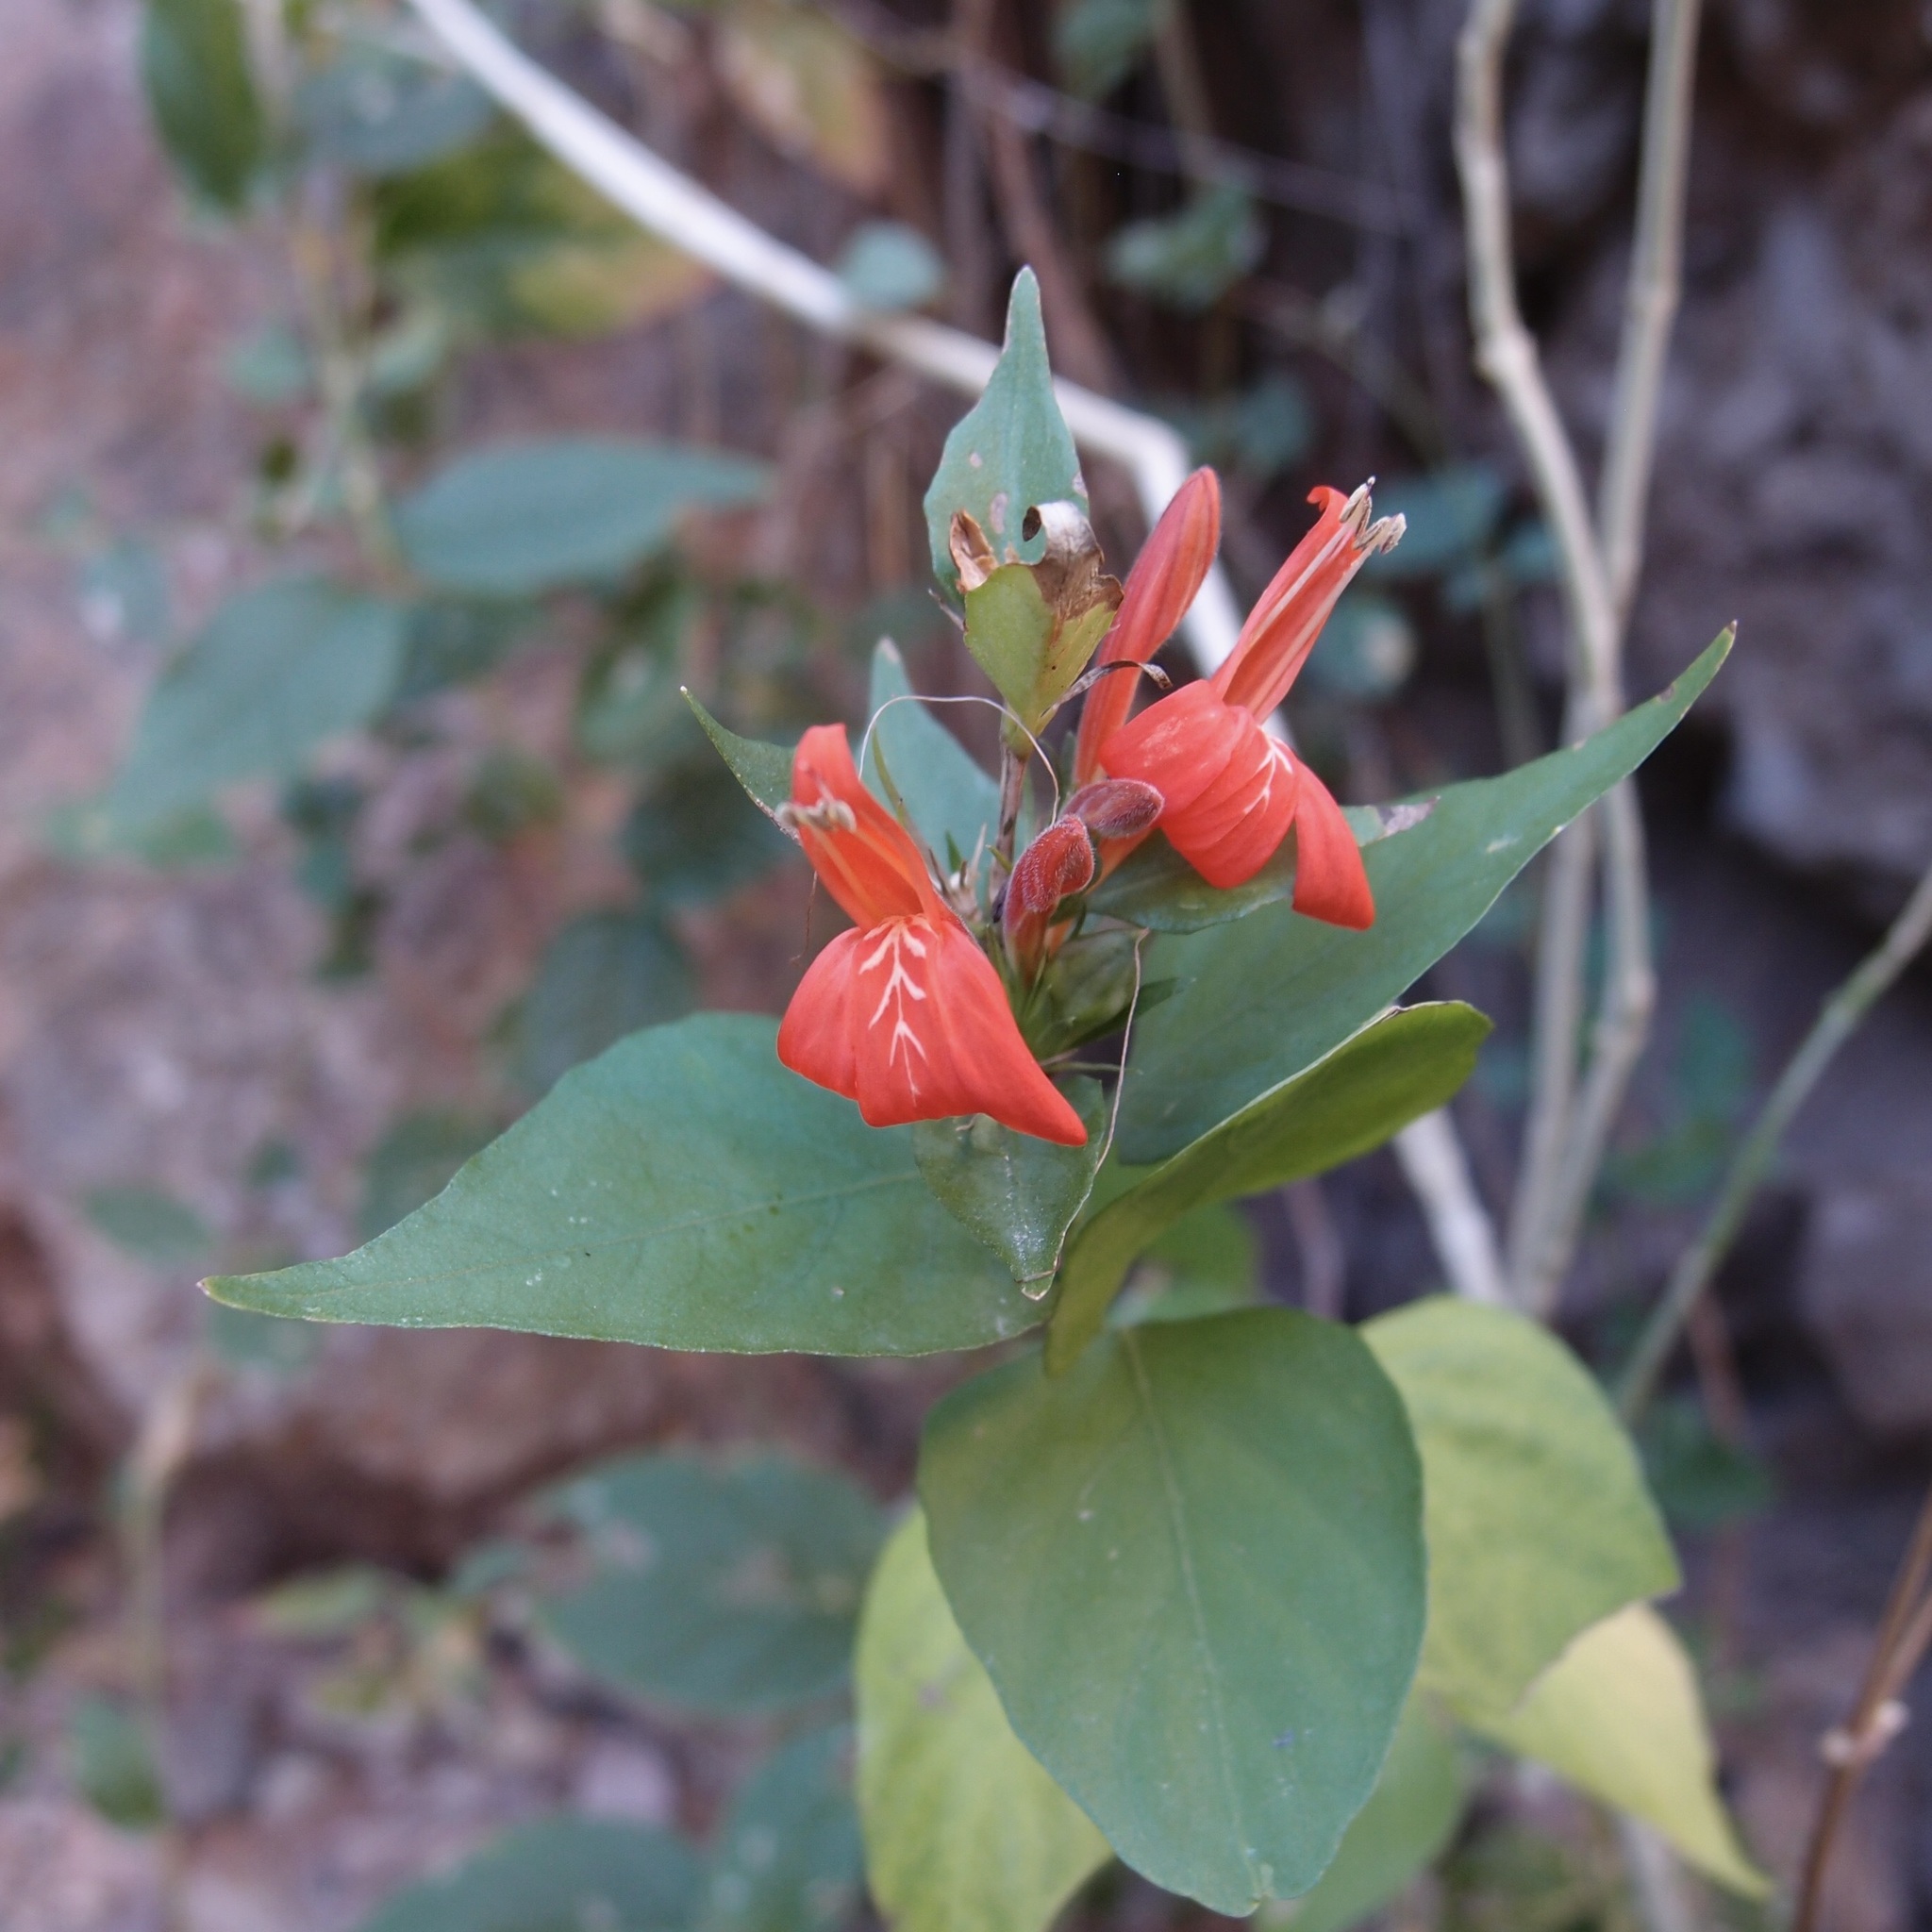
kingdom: Plantae
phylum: Tracheophyta
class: Magnoliopsida
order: Lamiales
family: Acanthaceae
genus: Dianthera
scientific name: Dianthera candicans
